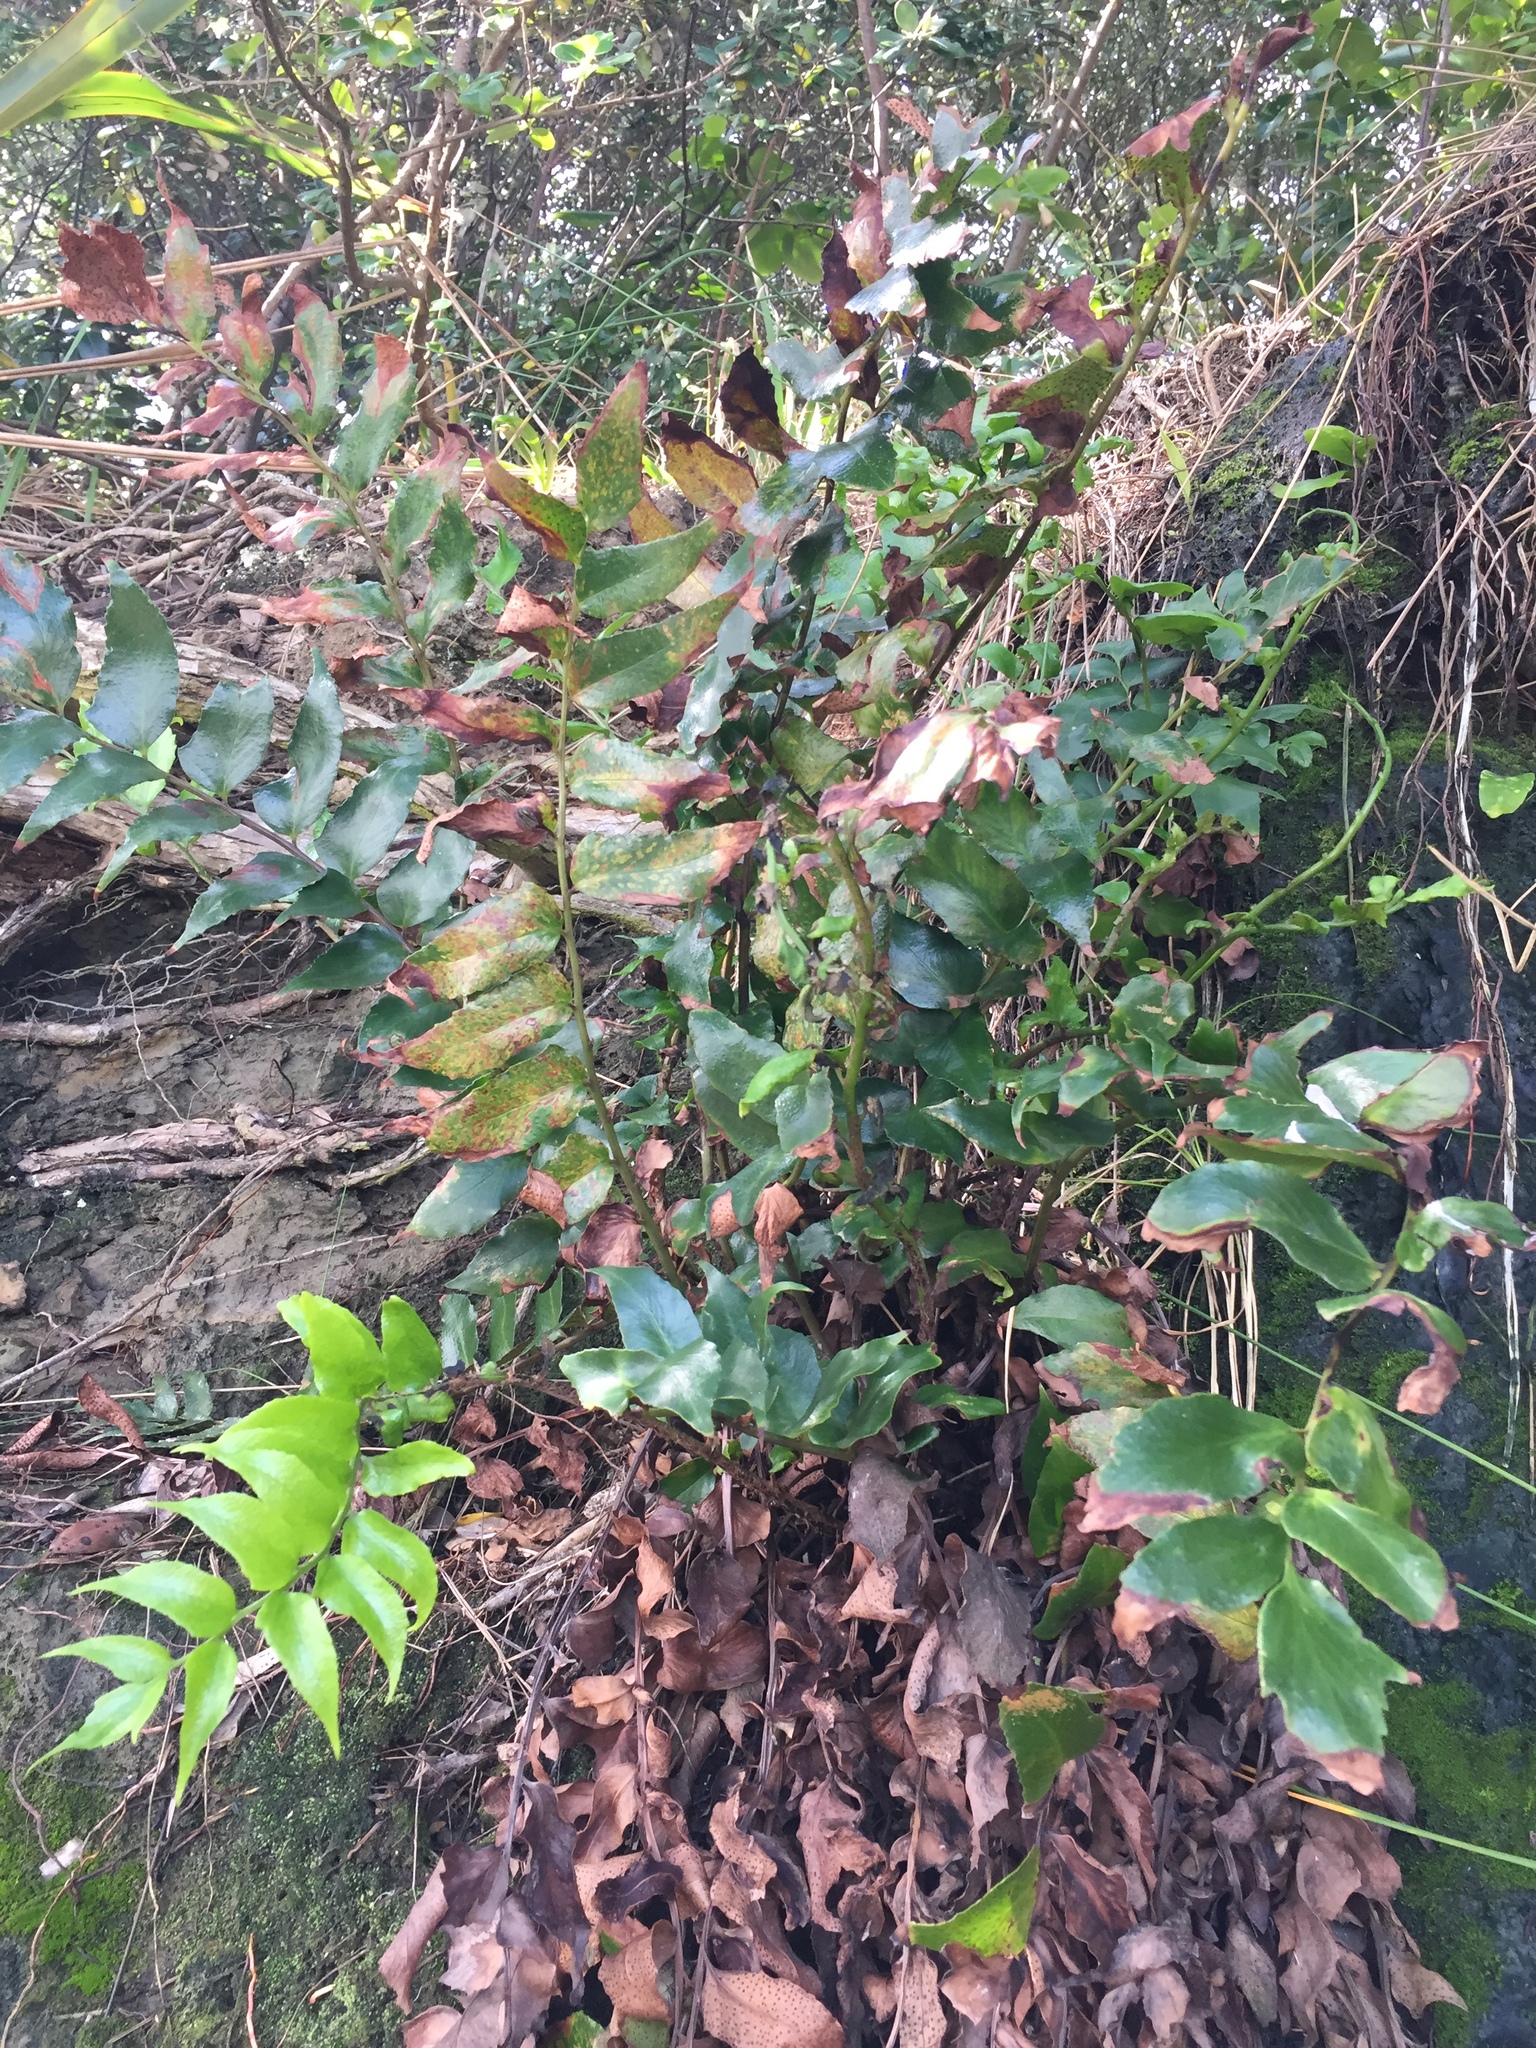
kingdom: Plantae
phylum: Tracheophyta
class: Polypodiopsida
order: Polypodiales
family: Dryopteridaceae
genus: Cyrtomium
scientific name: Cyrtomium falcatum
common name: House holly-fern
